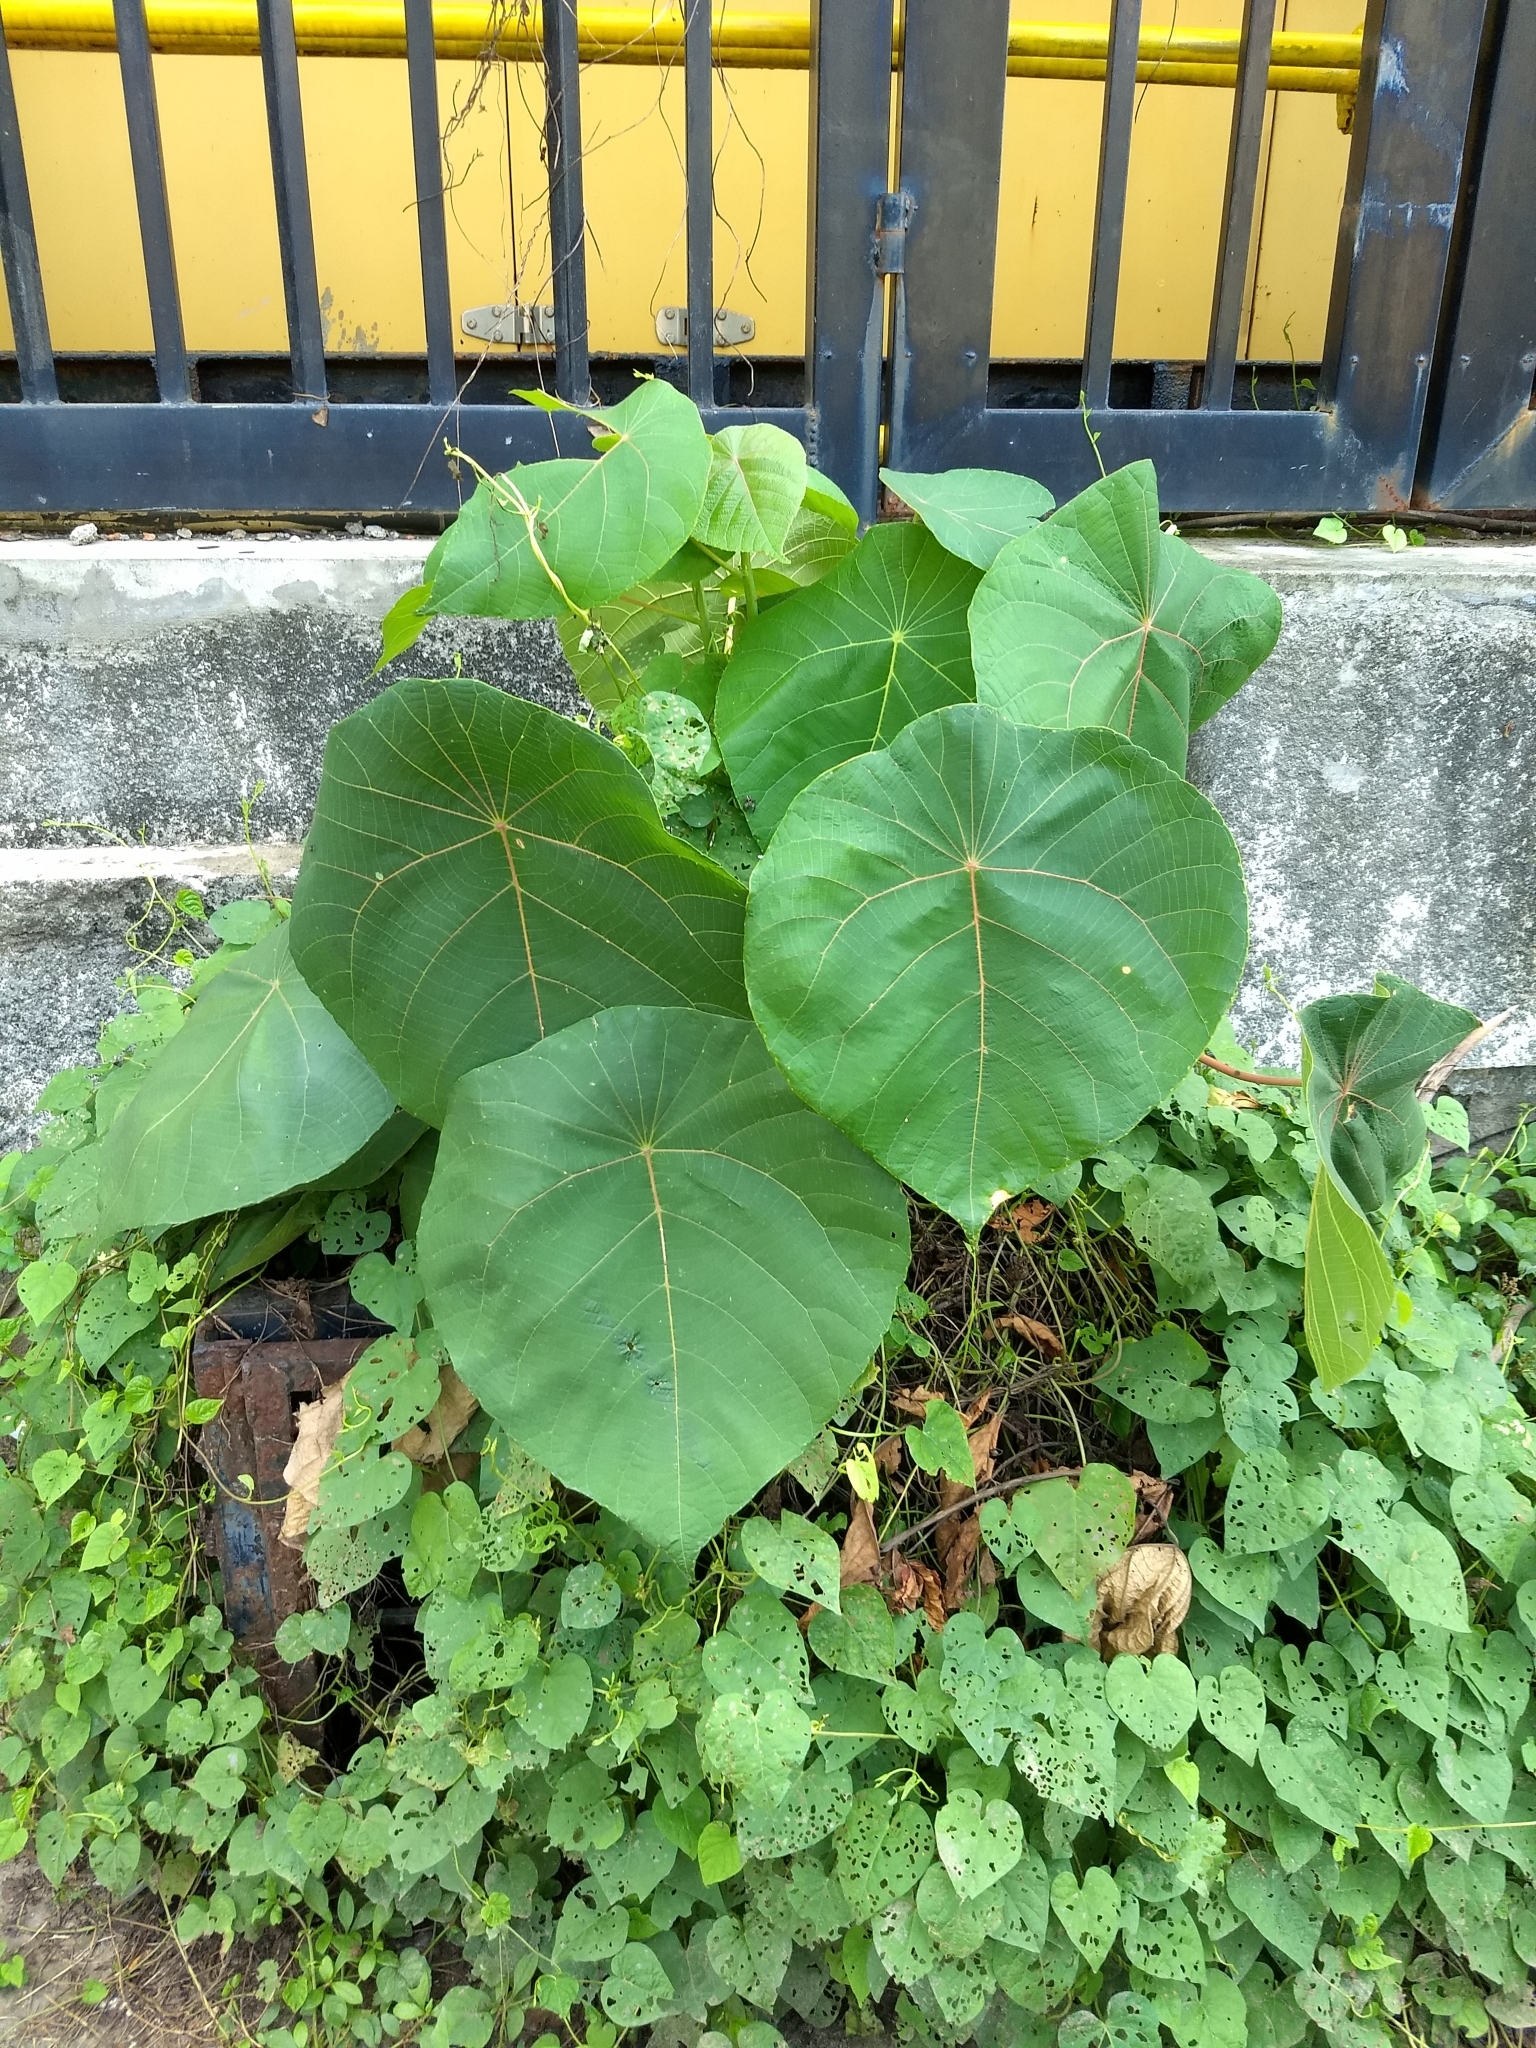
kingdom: Plantae
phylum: Tracheophyta
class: Magnoliopsida
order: Malpighiales
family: Euphorbiaceae
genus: Macaranga
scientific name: Macaranga peltata
